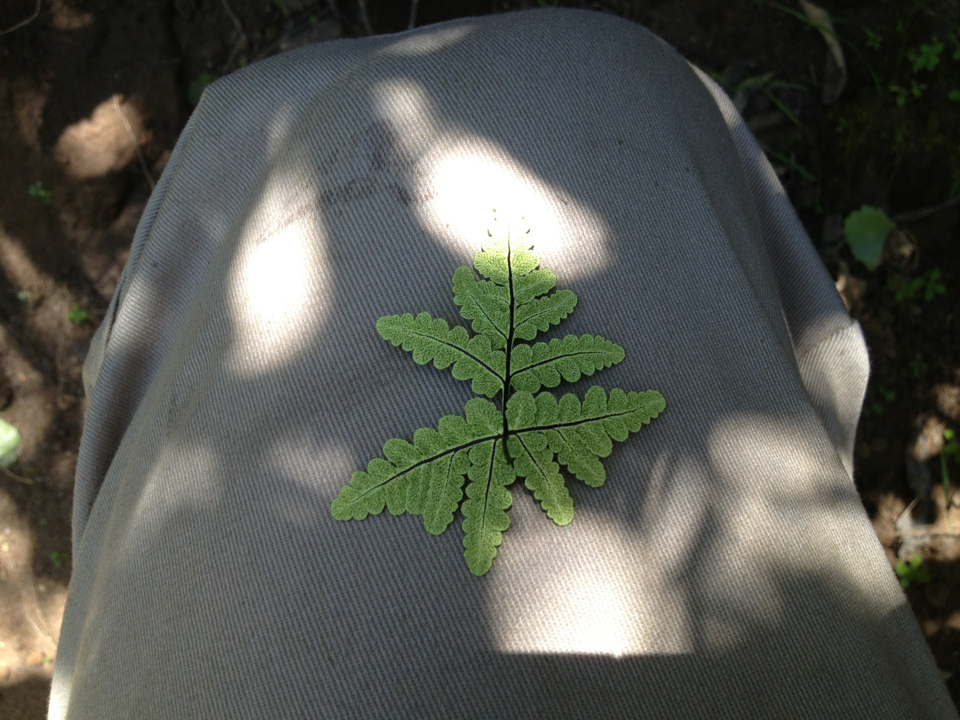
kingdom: Plantae
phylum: Tracheophyta
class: Polypodiopsida
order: Polypodiales
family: Pteridaceae
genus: Pentagramma
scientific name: Pentagramma triangularis
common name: Gold fern
